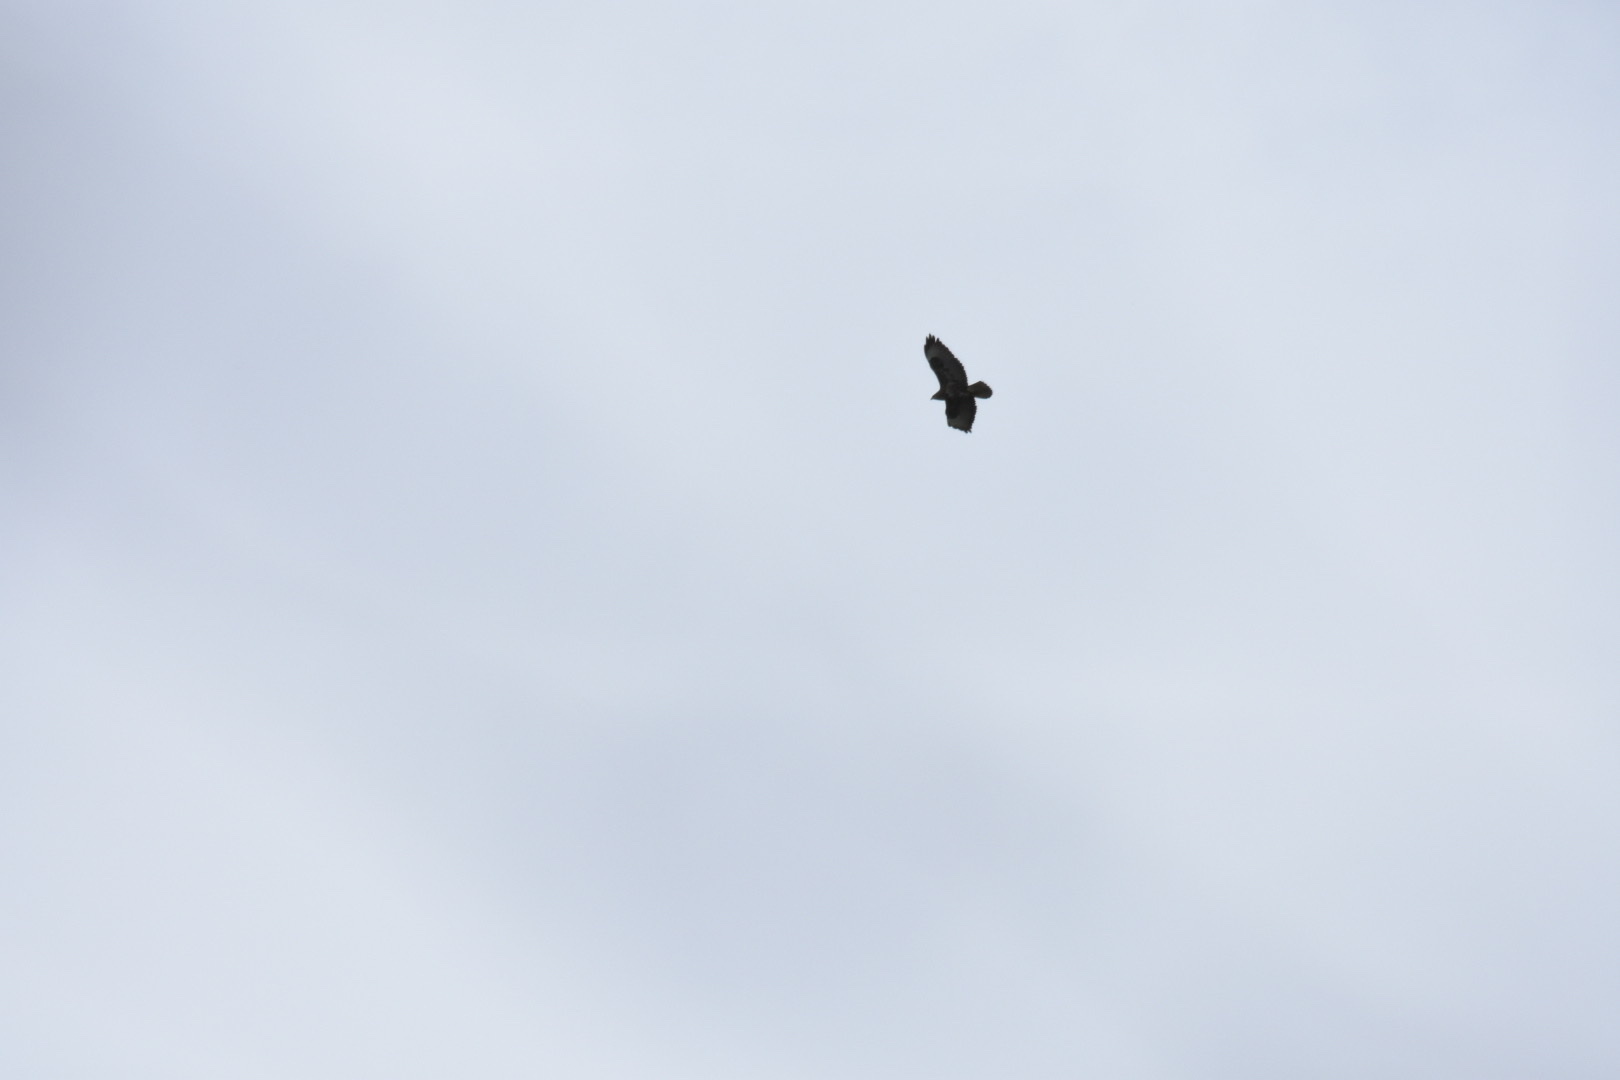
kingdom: Animalia
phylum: Chordata
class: Aves
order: Accipitriformes
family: Accipitridae
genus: Buteo
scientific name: Buteo buteo
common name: Common buzzard
